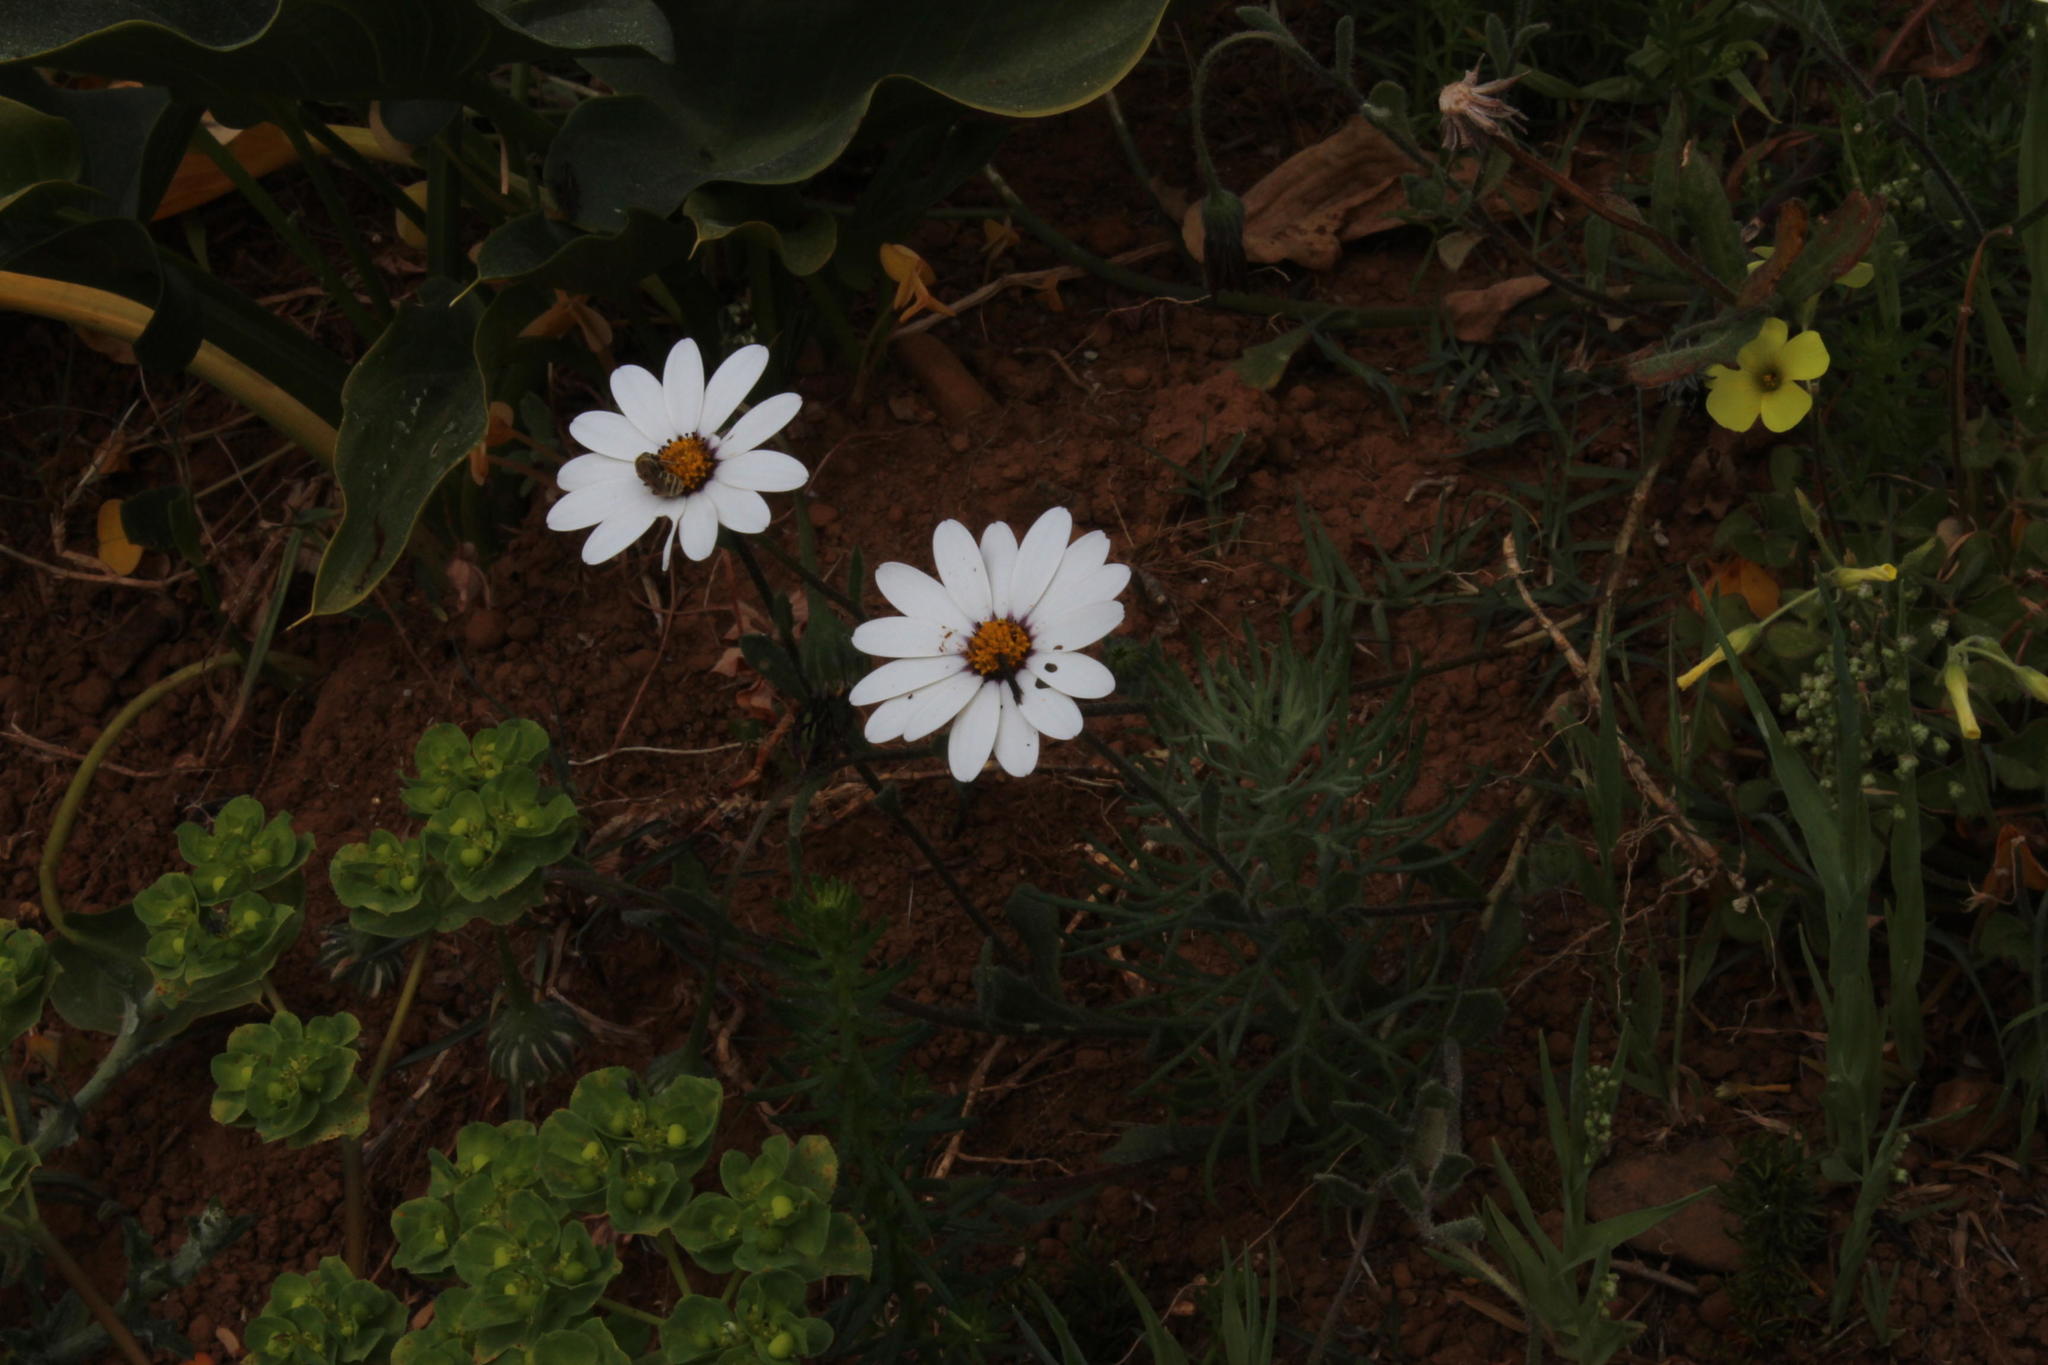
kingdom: Plantae
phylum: Tracheophyta
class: Magnoliopsida
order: Asterales
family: Asteraceae
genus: Dimorphotheca
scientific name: Dimorphotheca pluvialis
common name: Weather prophet
